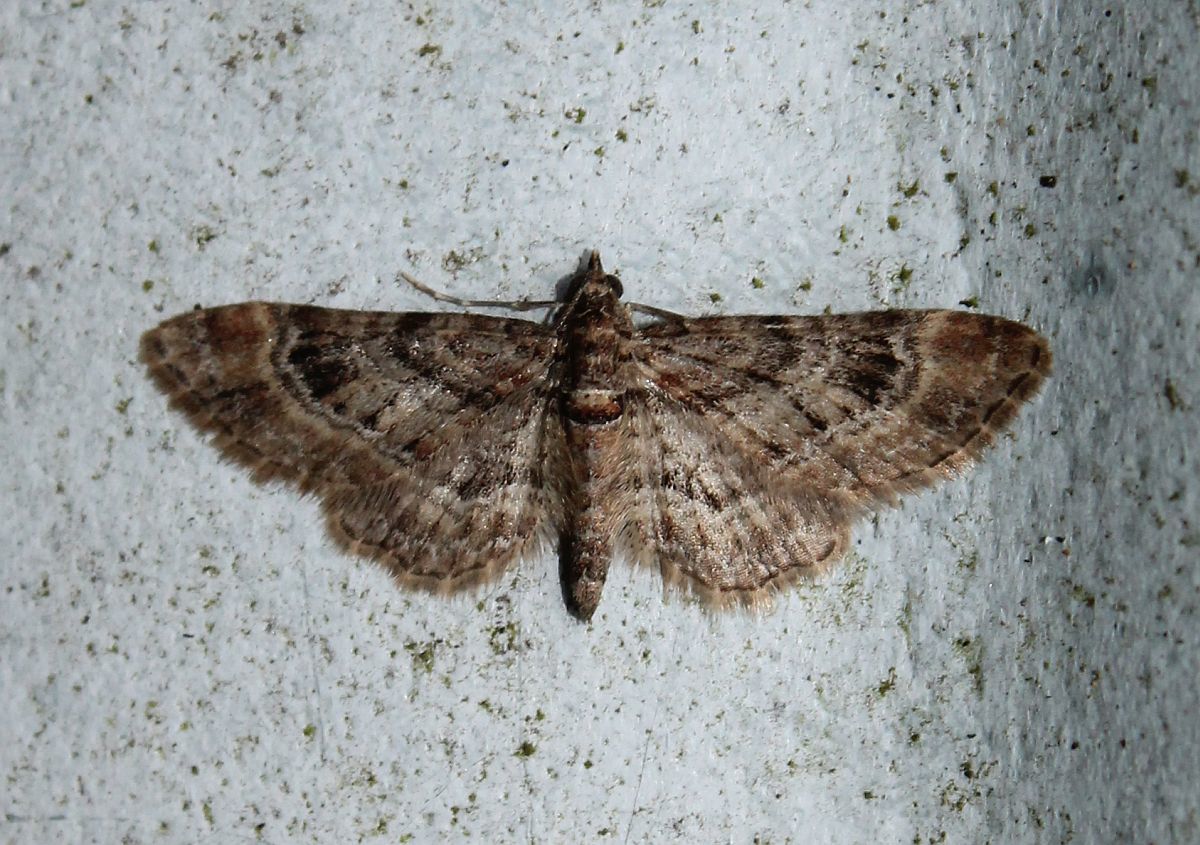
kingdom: Animalia
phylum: Arthropoda
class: Insecta
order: Lepidoptera
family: Geometridae
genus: Gymnoscelis
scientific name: Gymnoscelis rufifasciata
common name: Double-striped pug
